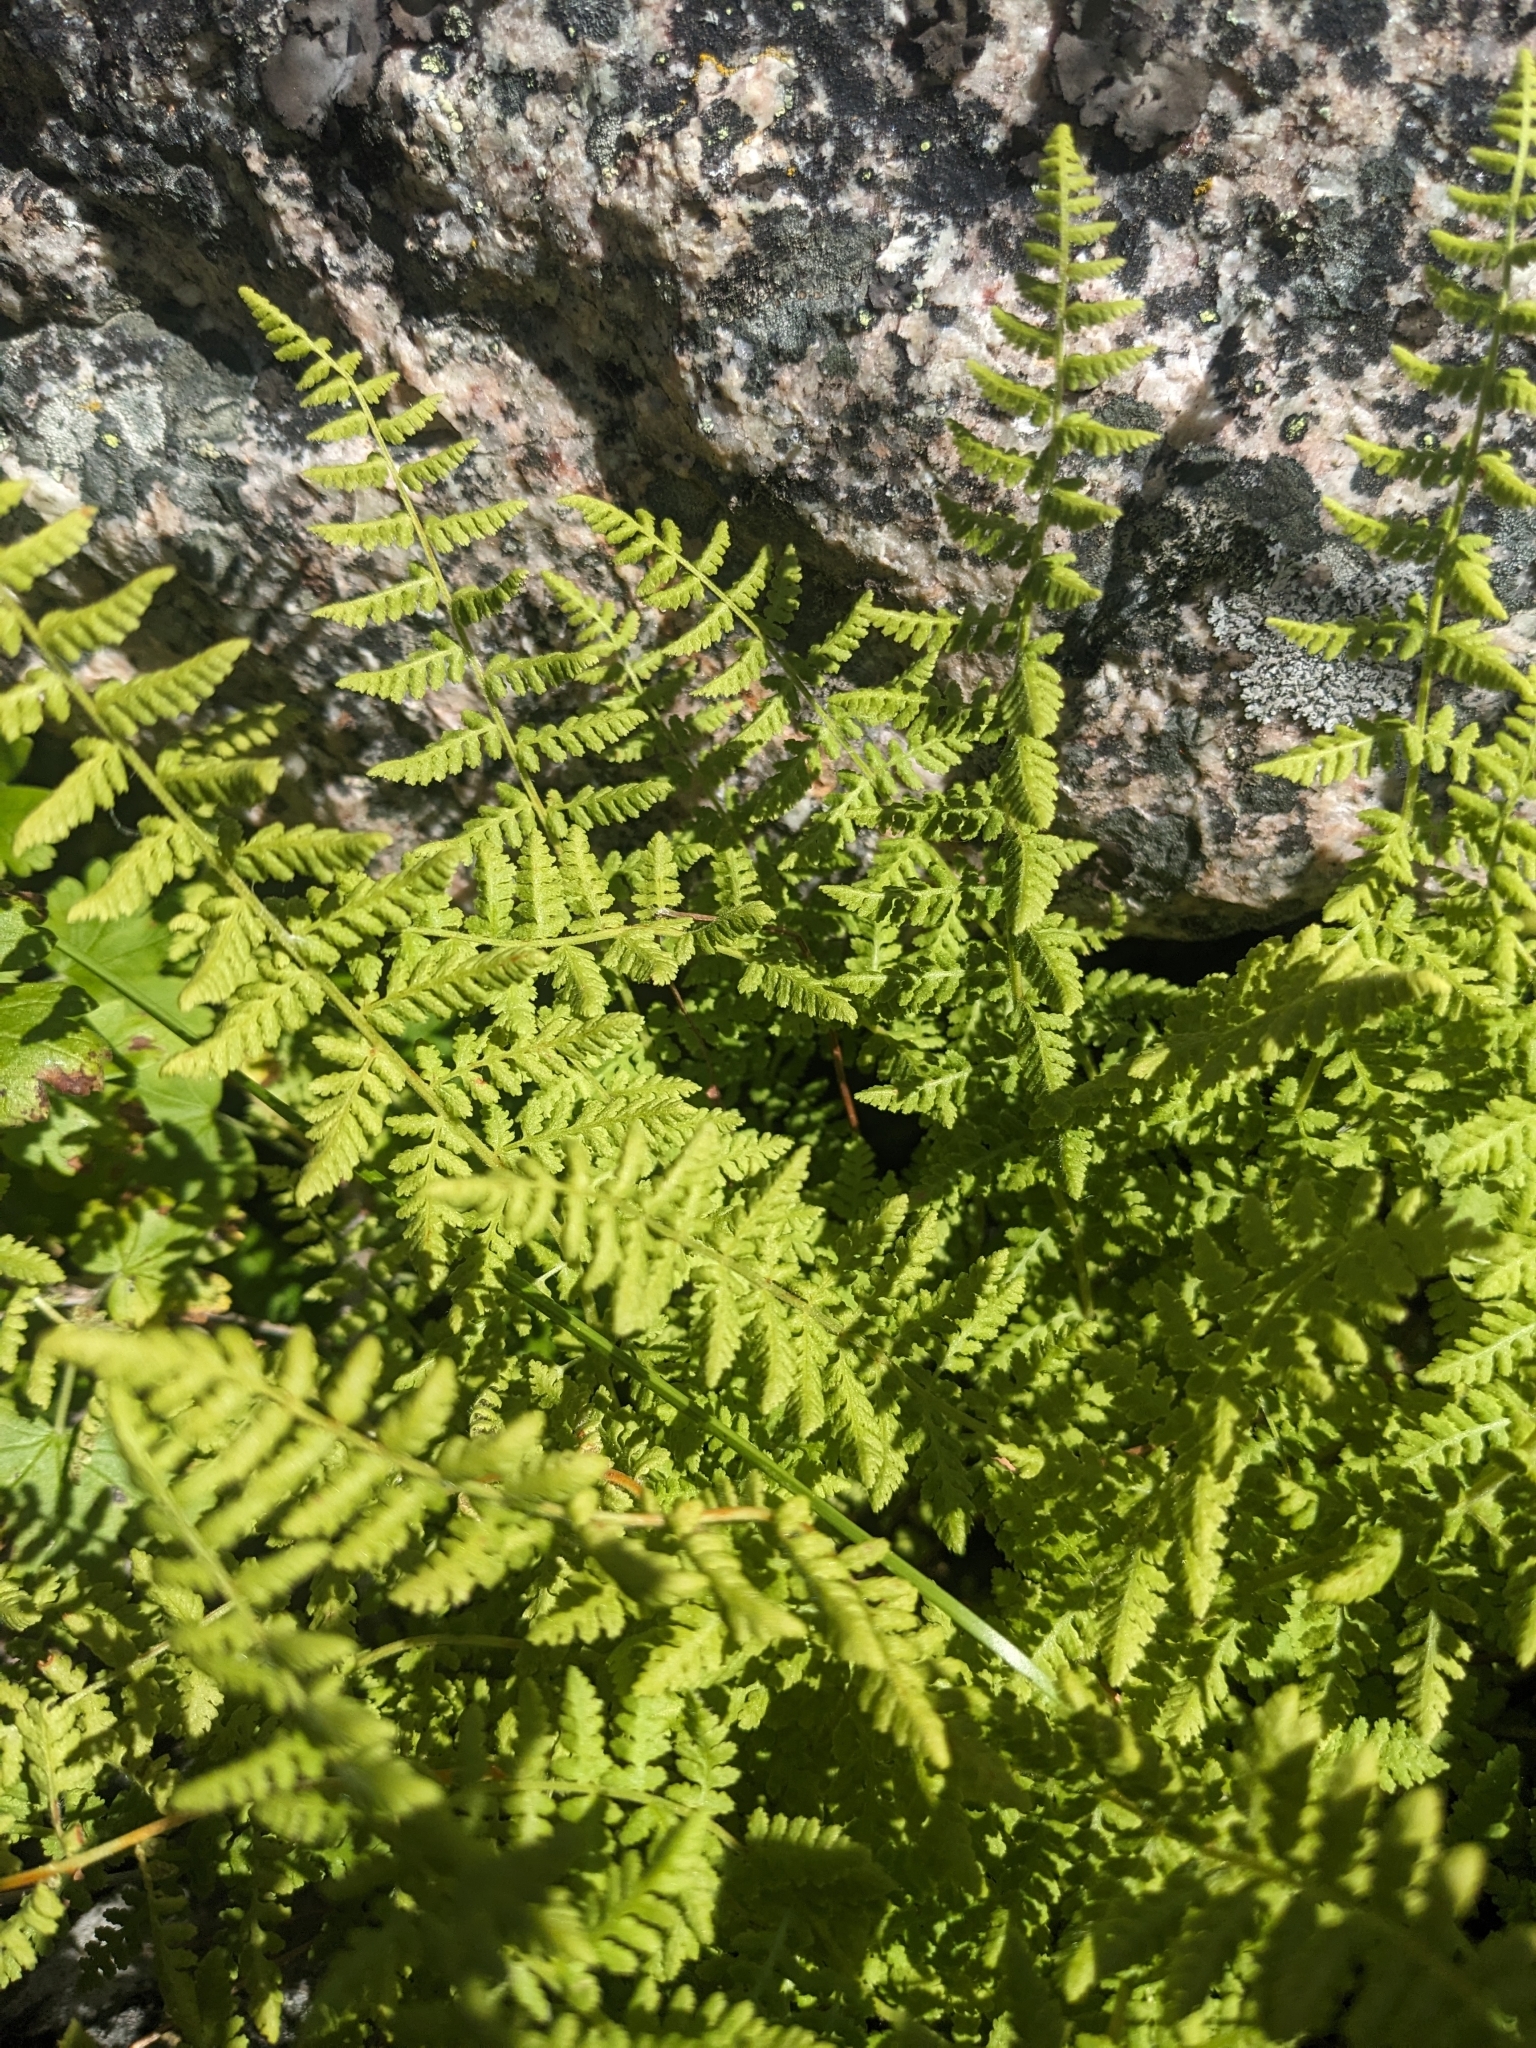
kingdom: Plantae
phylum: Tracheophyta
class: Polypodiopsida
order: Polypodiales
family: Woodsiaceae
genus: Physematium
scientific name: Physematium scopulinum
